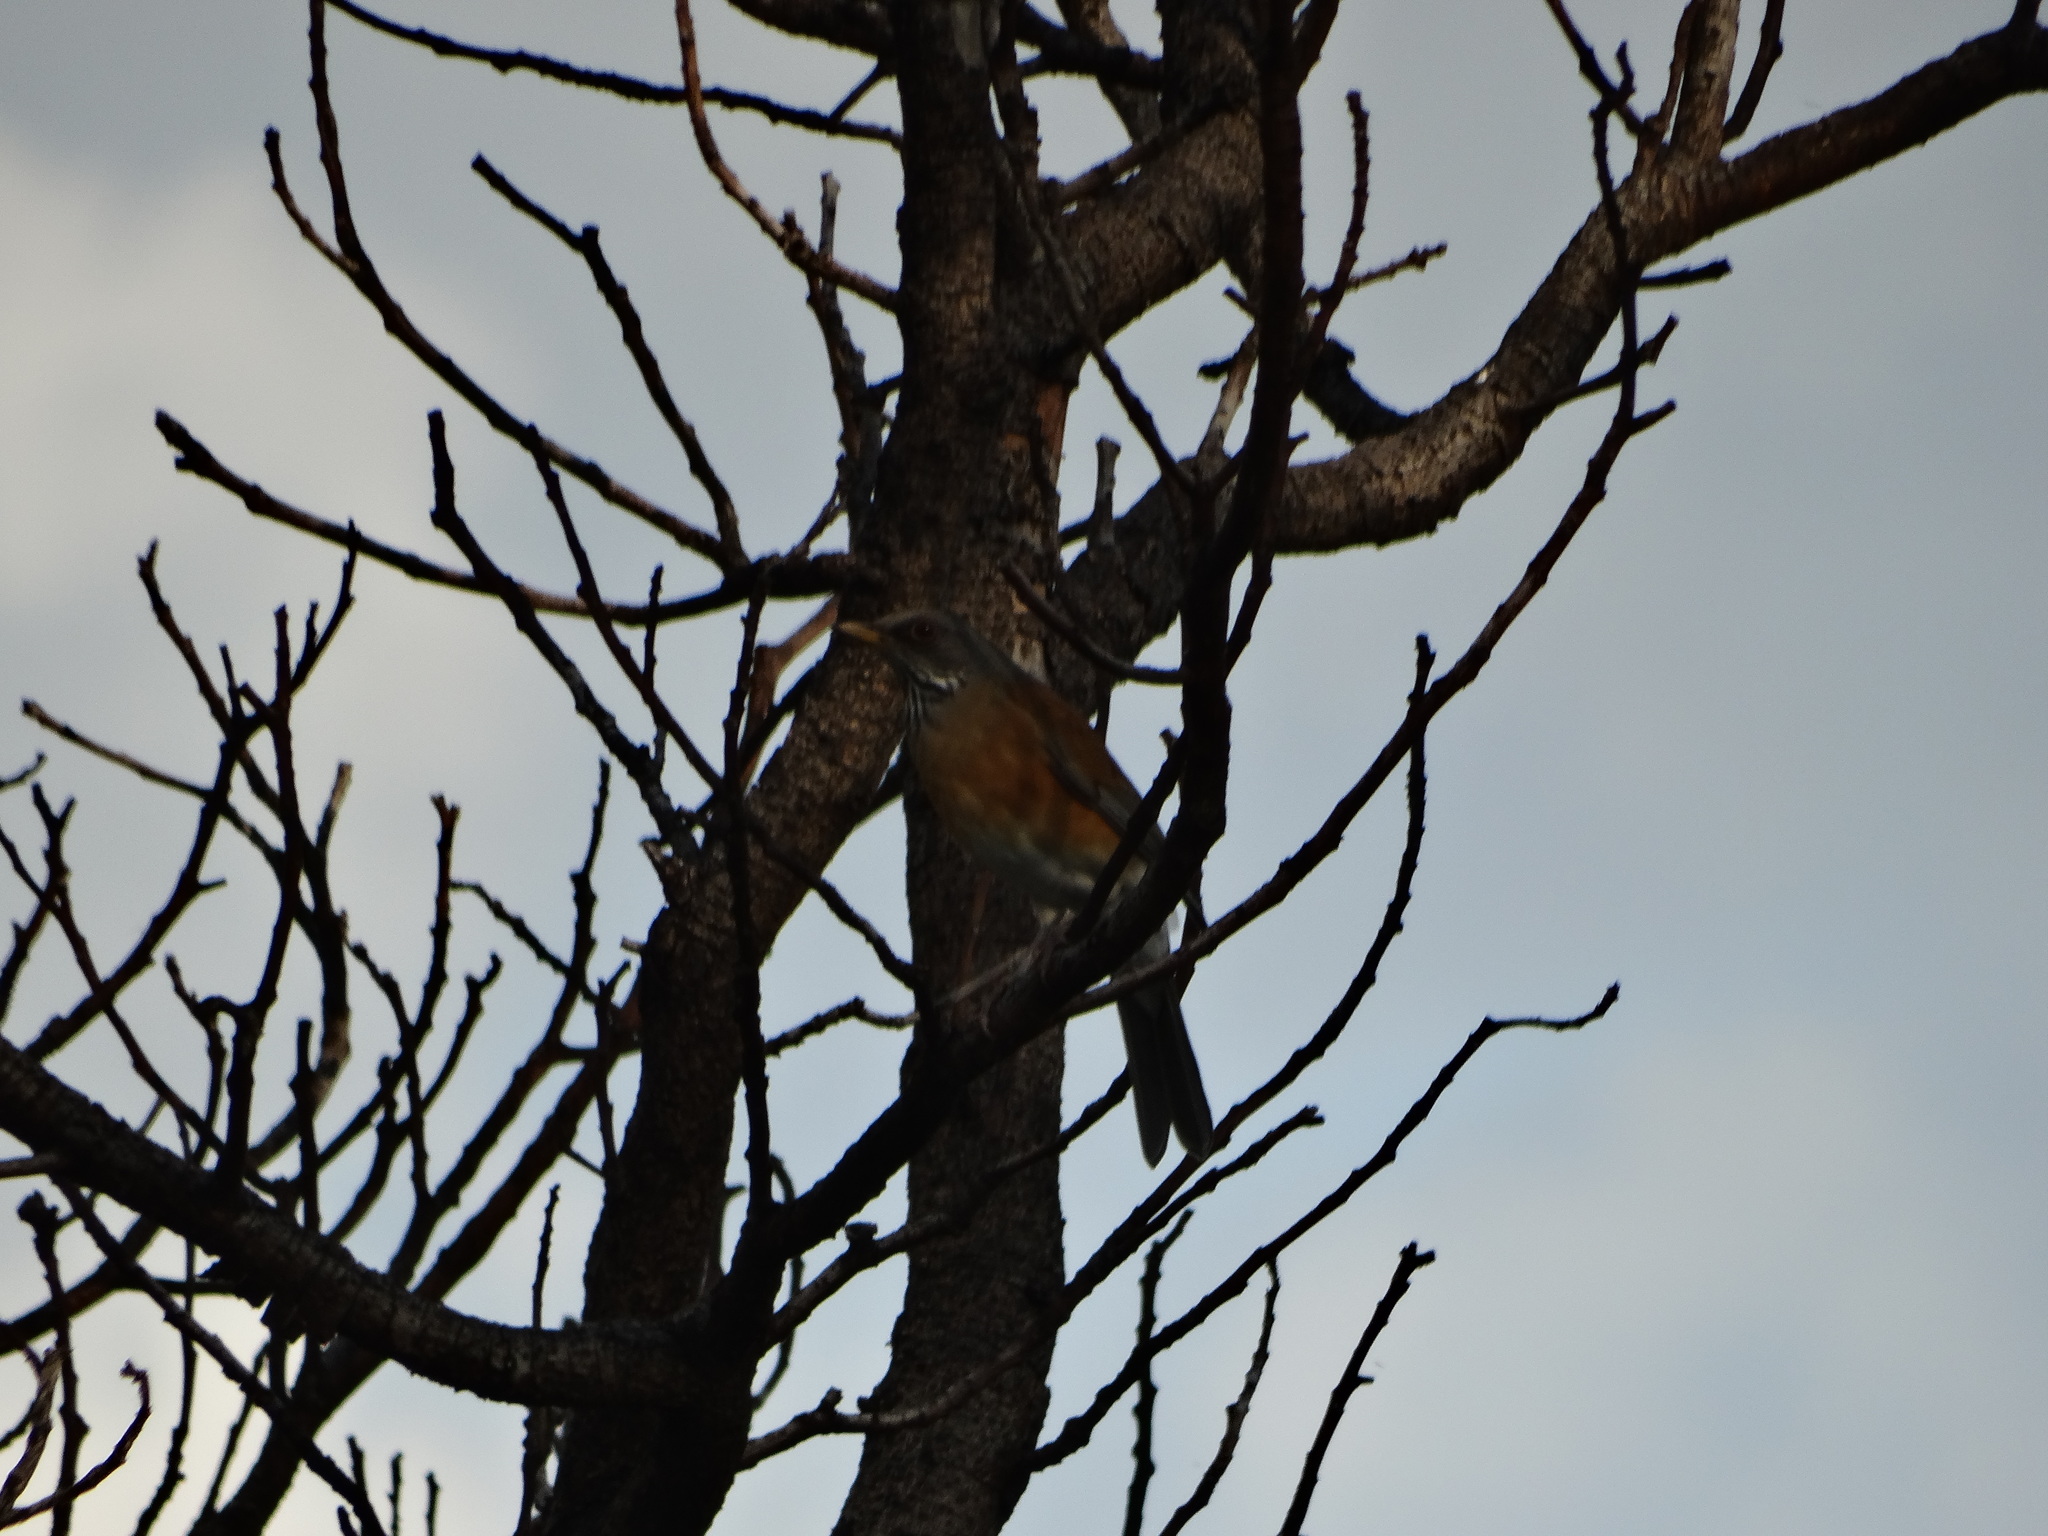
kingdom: Animalia
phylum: Chordata
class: Aves
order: Passeriformes
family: Turdidae
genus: Turdus
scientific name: Turdus rufopalliatus
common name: Rufous-backed robin
